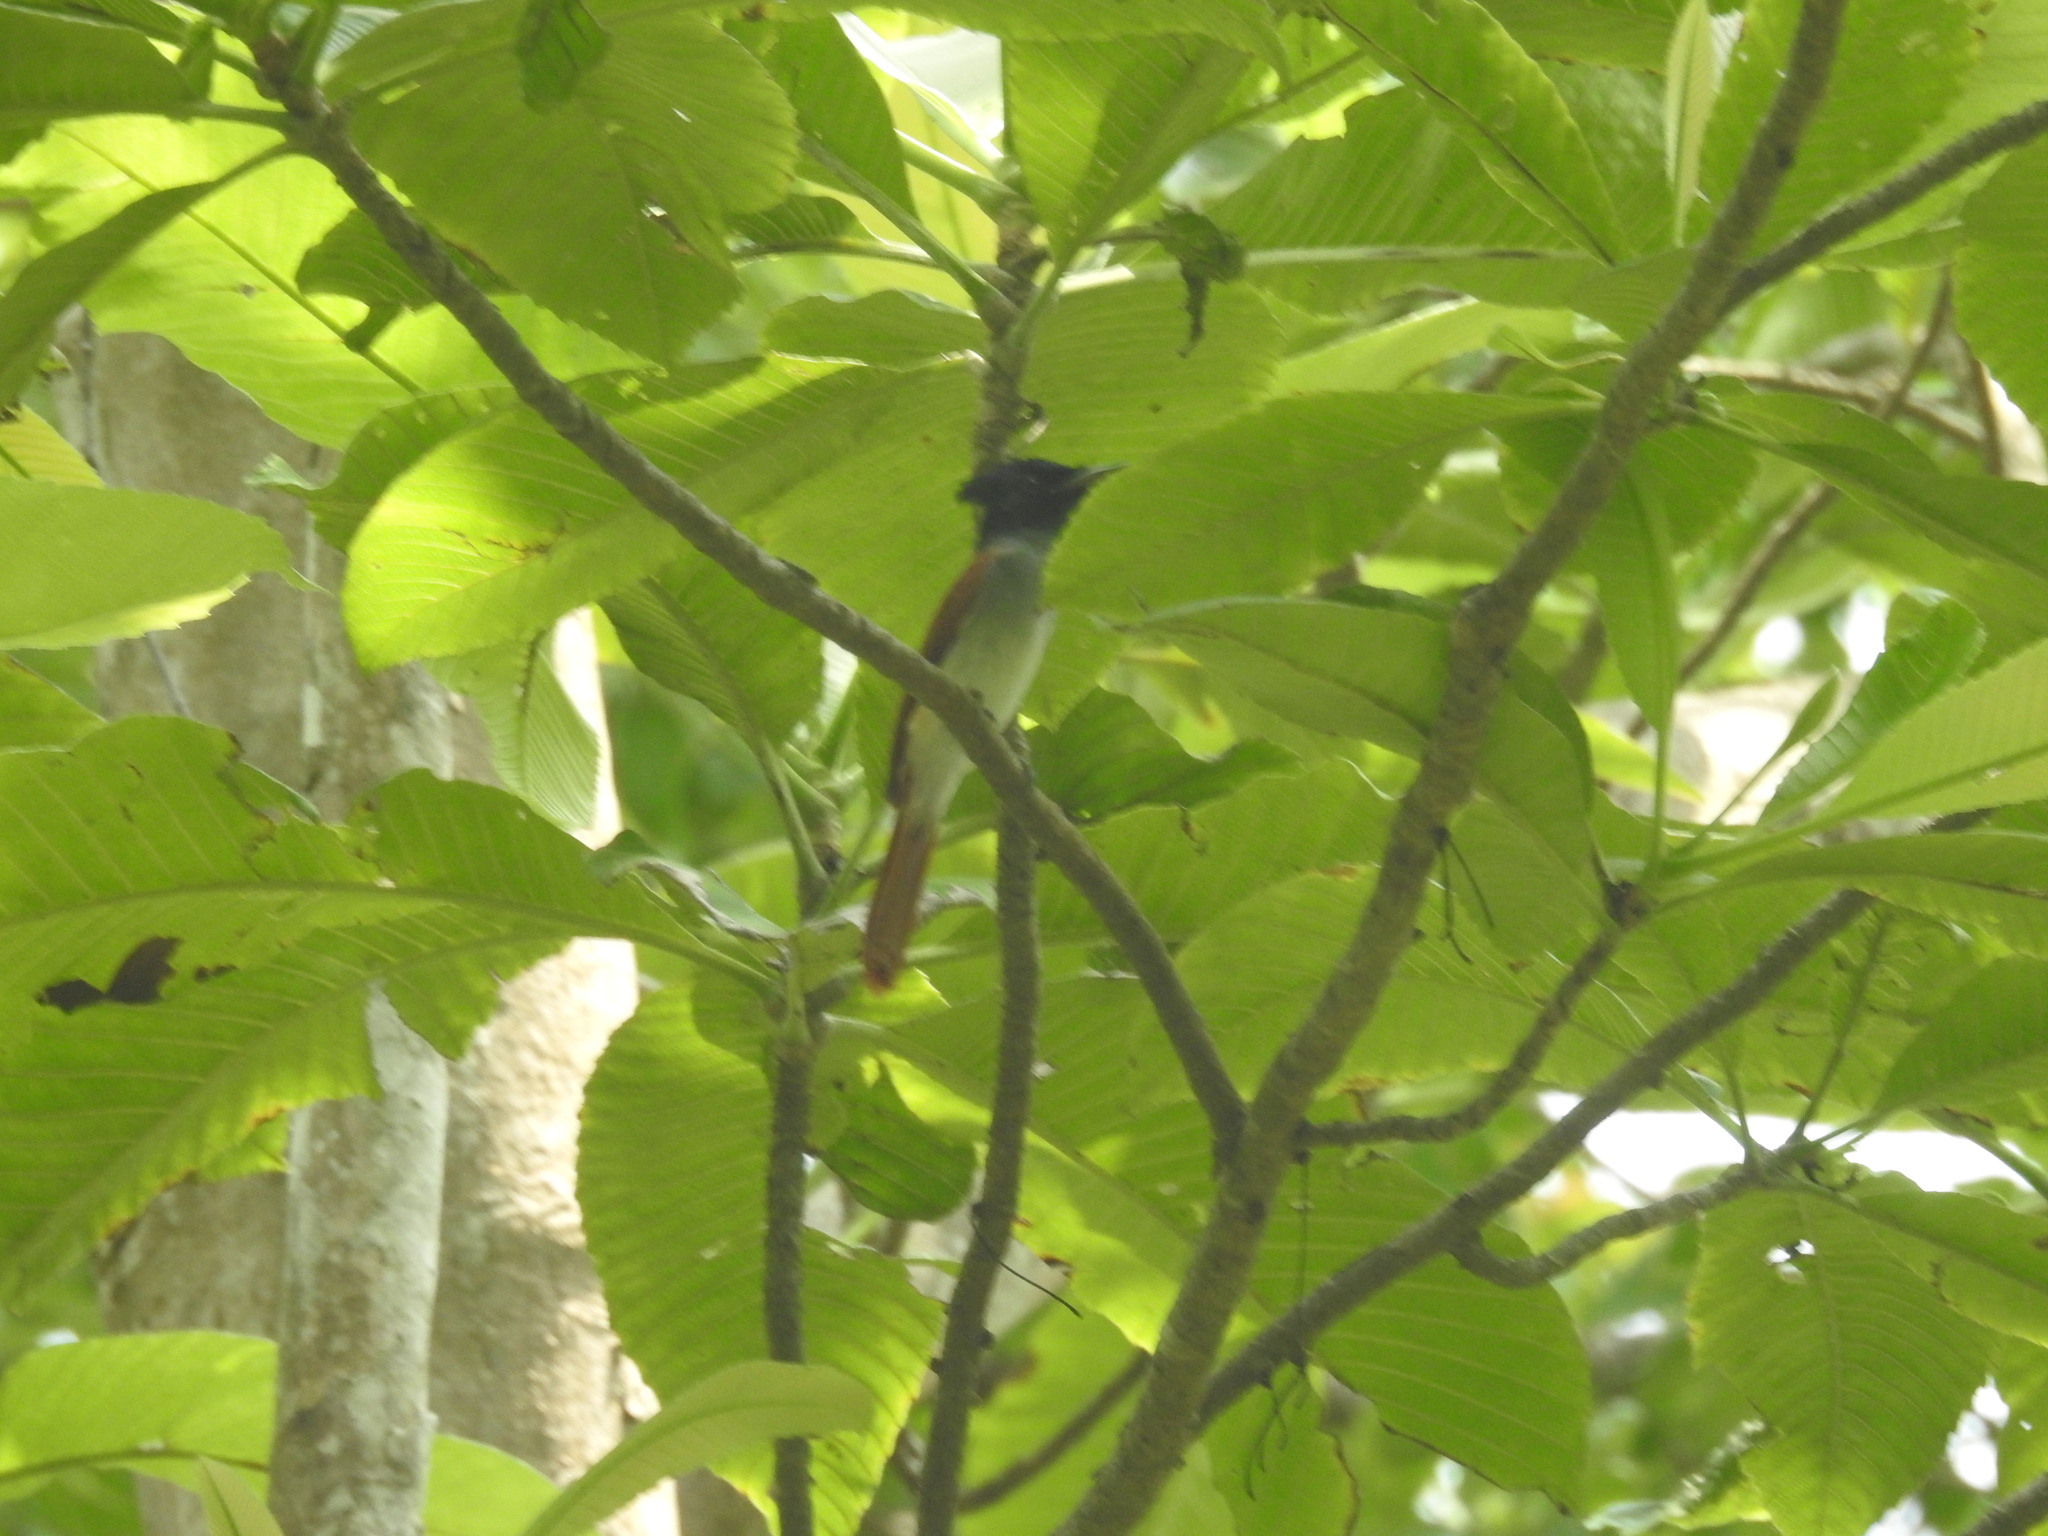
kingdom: Animalia
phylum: Chordata
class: Aves
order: Passeriformes
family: Monarchidae
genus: Terpsiphone
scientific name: Terpsiphone paradisi
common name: Indian paradise flycatcher
